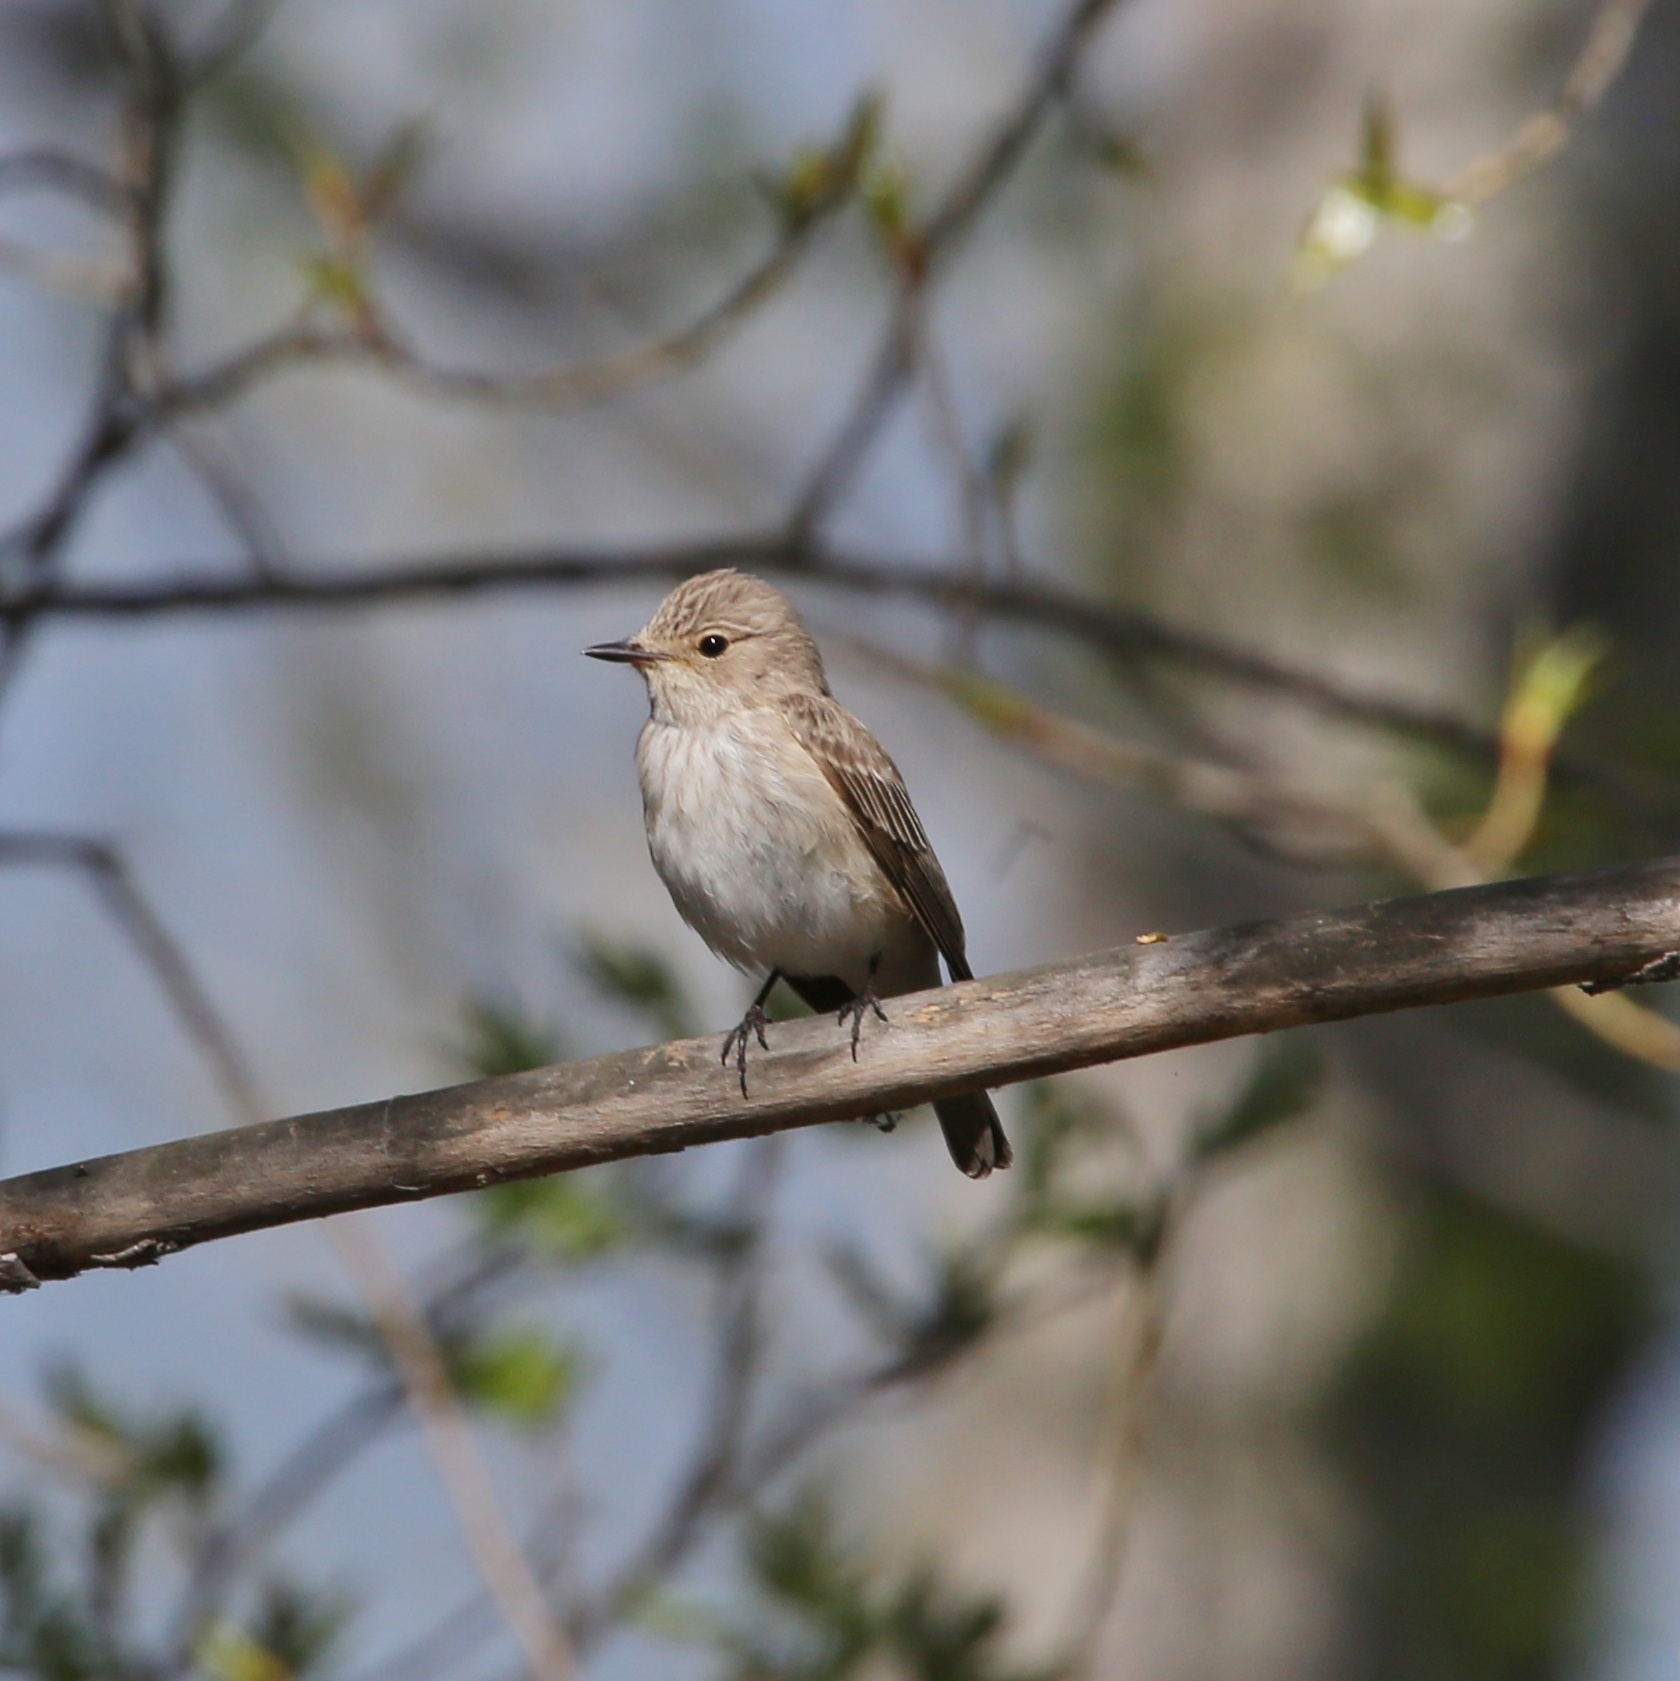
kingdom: Animalia
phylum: Chordata
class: Aves
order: Passeriformes
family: Muscicapidae
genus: Muscicapa
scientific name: Muscicapa striata
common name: Spotted flycatcher
